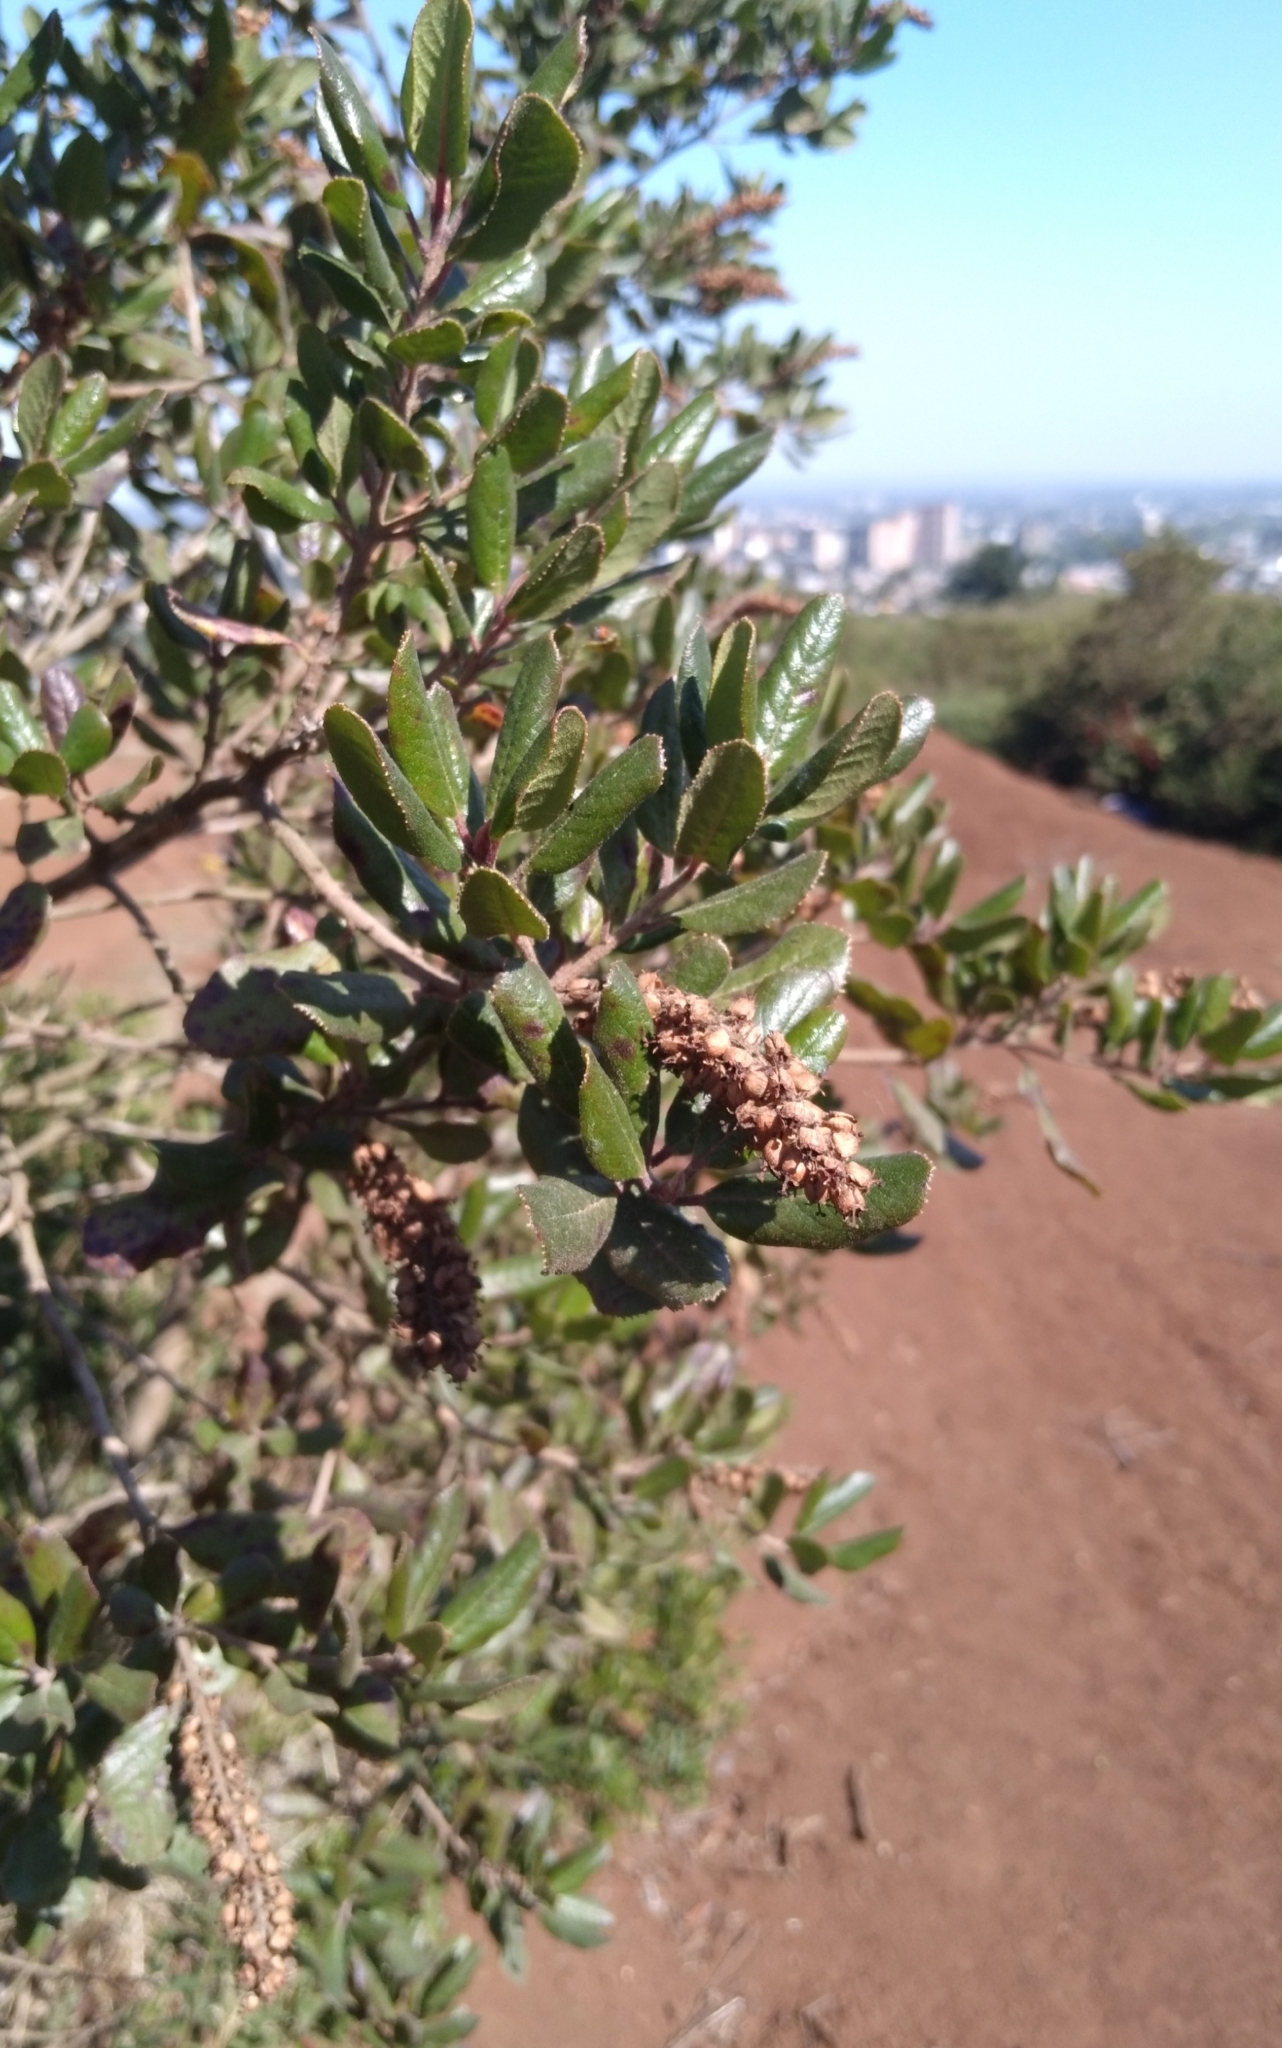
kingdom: Plantae
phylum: Tracheophyta
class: Magnoliopsida
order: Escalloniales
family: Escalloniaceae
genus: Escallonia
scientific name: Escallonia pulverulenta
